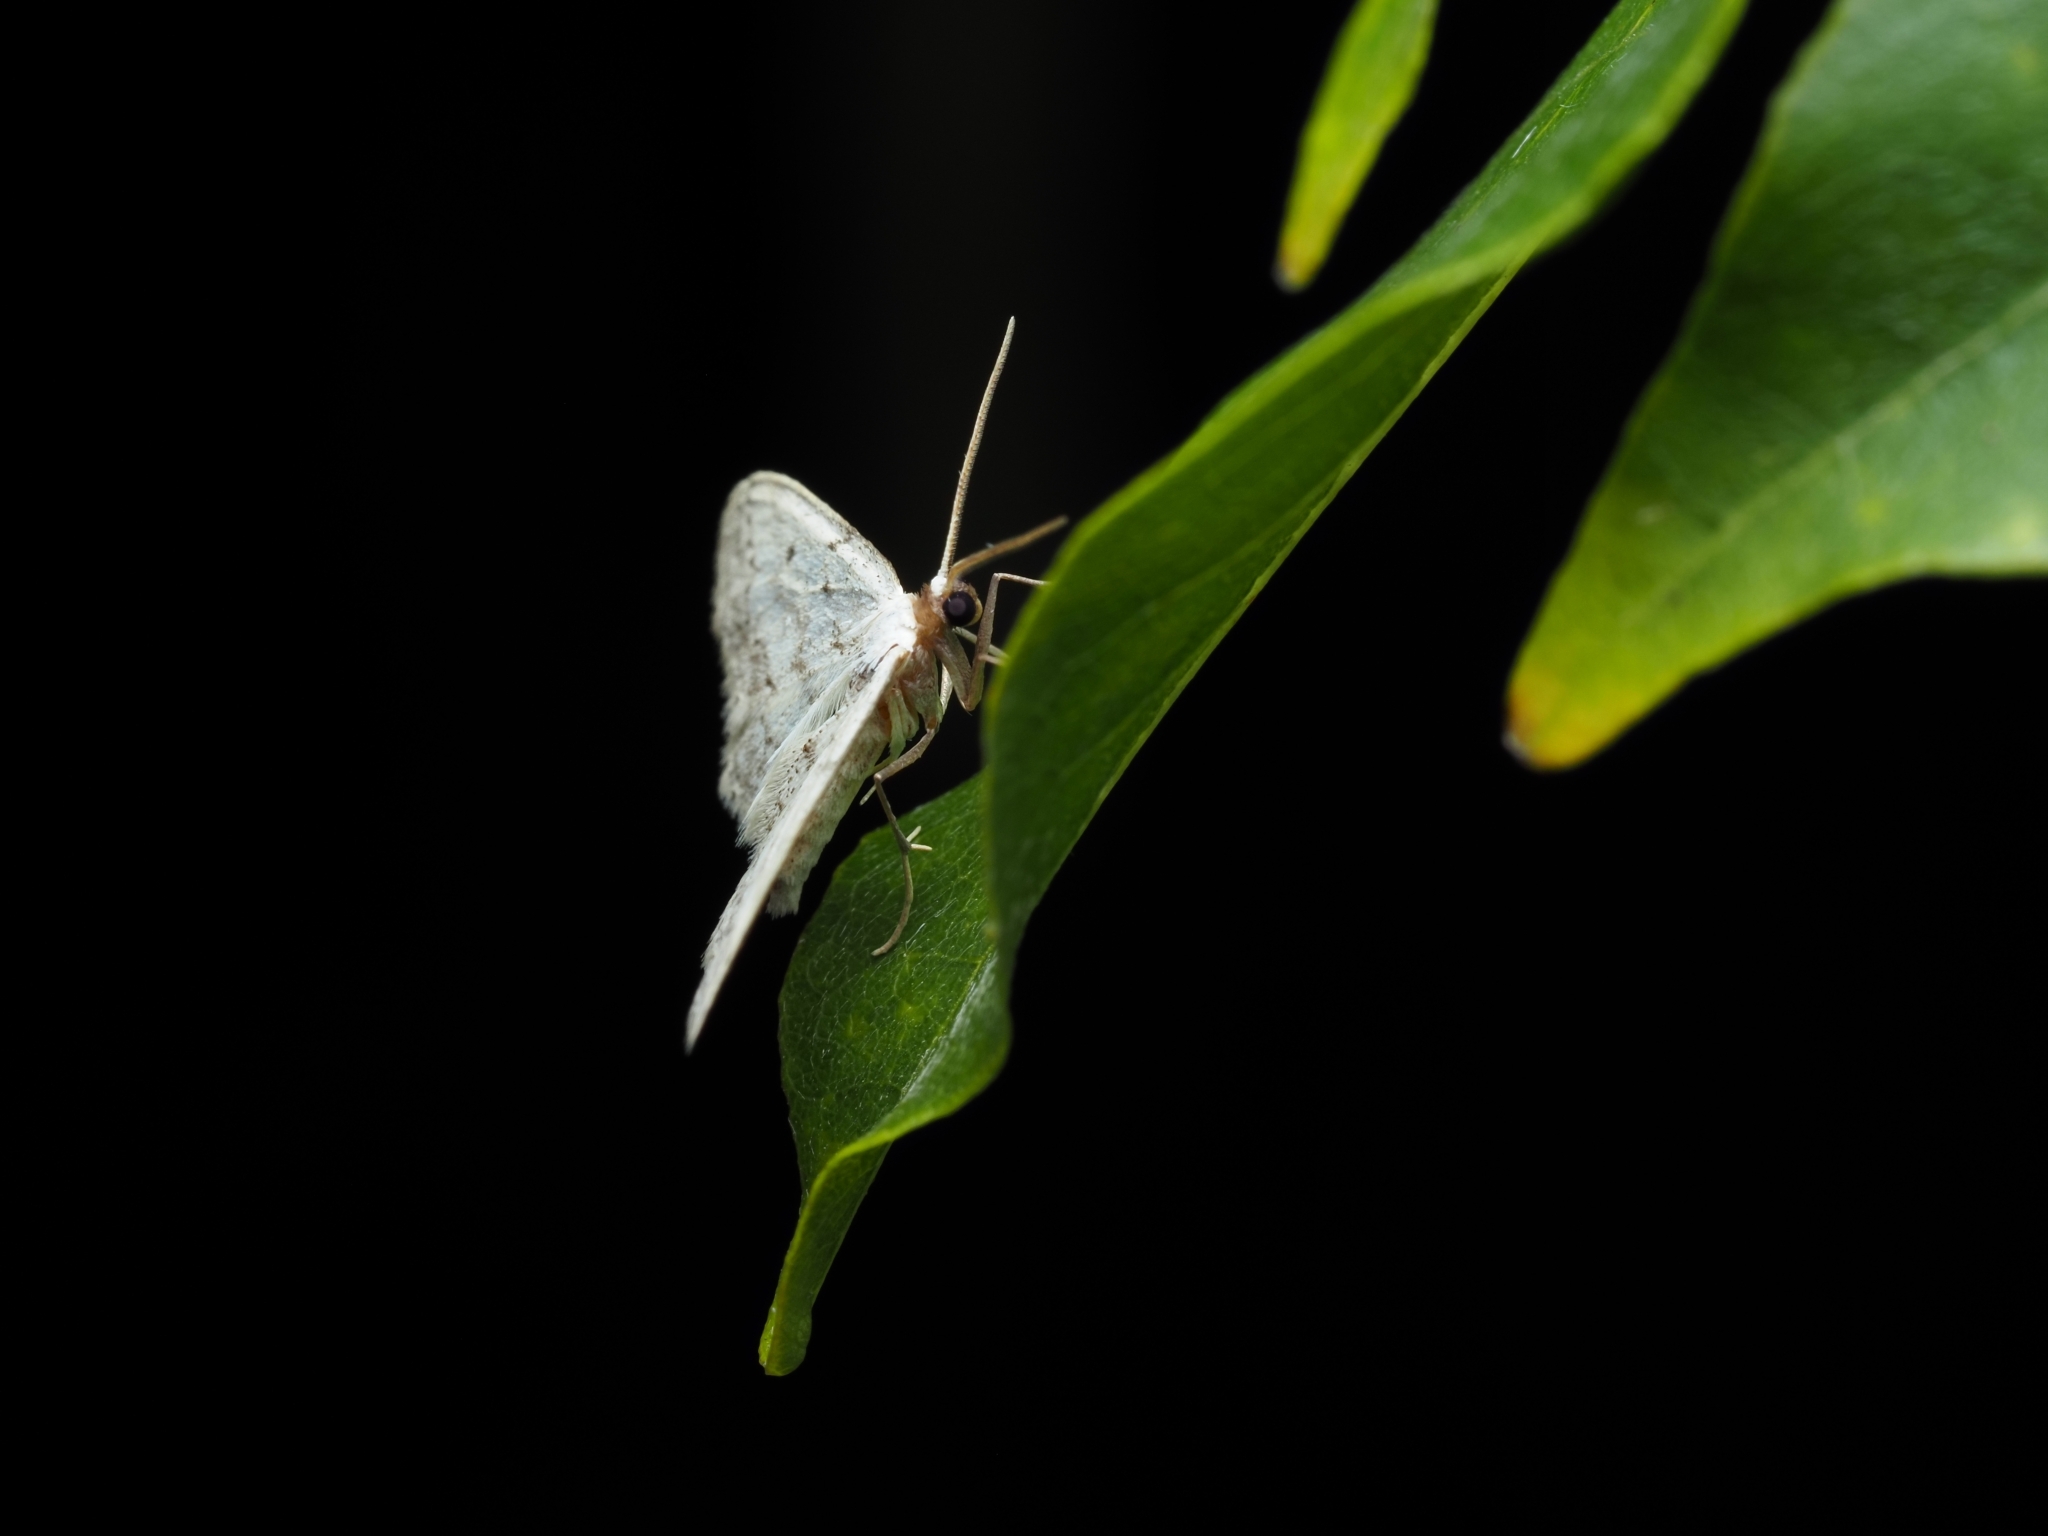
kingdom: Animalia
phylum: Arthropoda
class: Insecta
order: Lepidoptera
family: Geometridae
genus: Idaea
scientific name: Idaea seriata
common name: Small dusty wave
